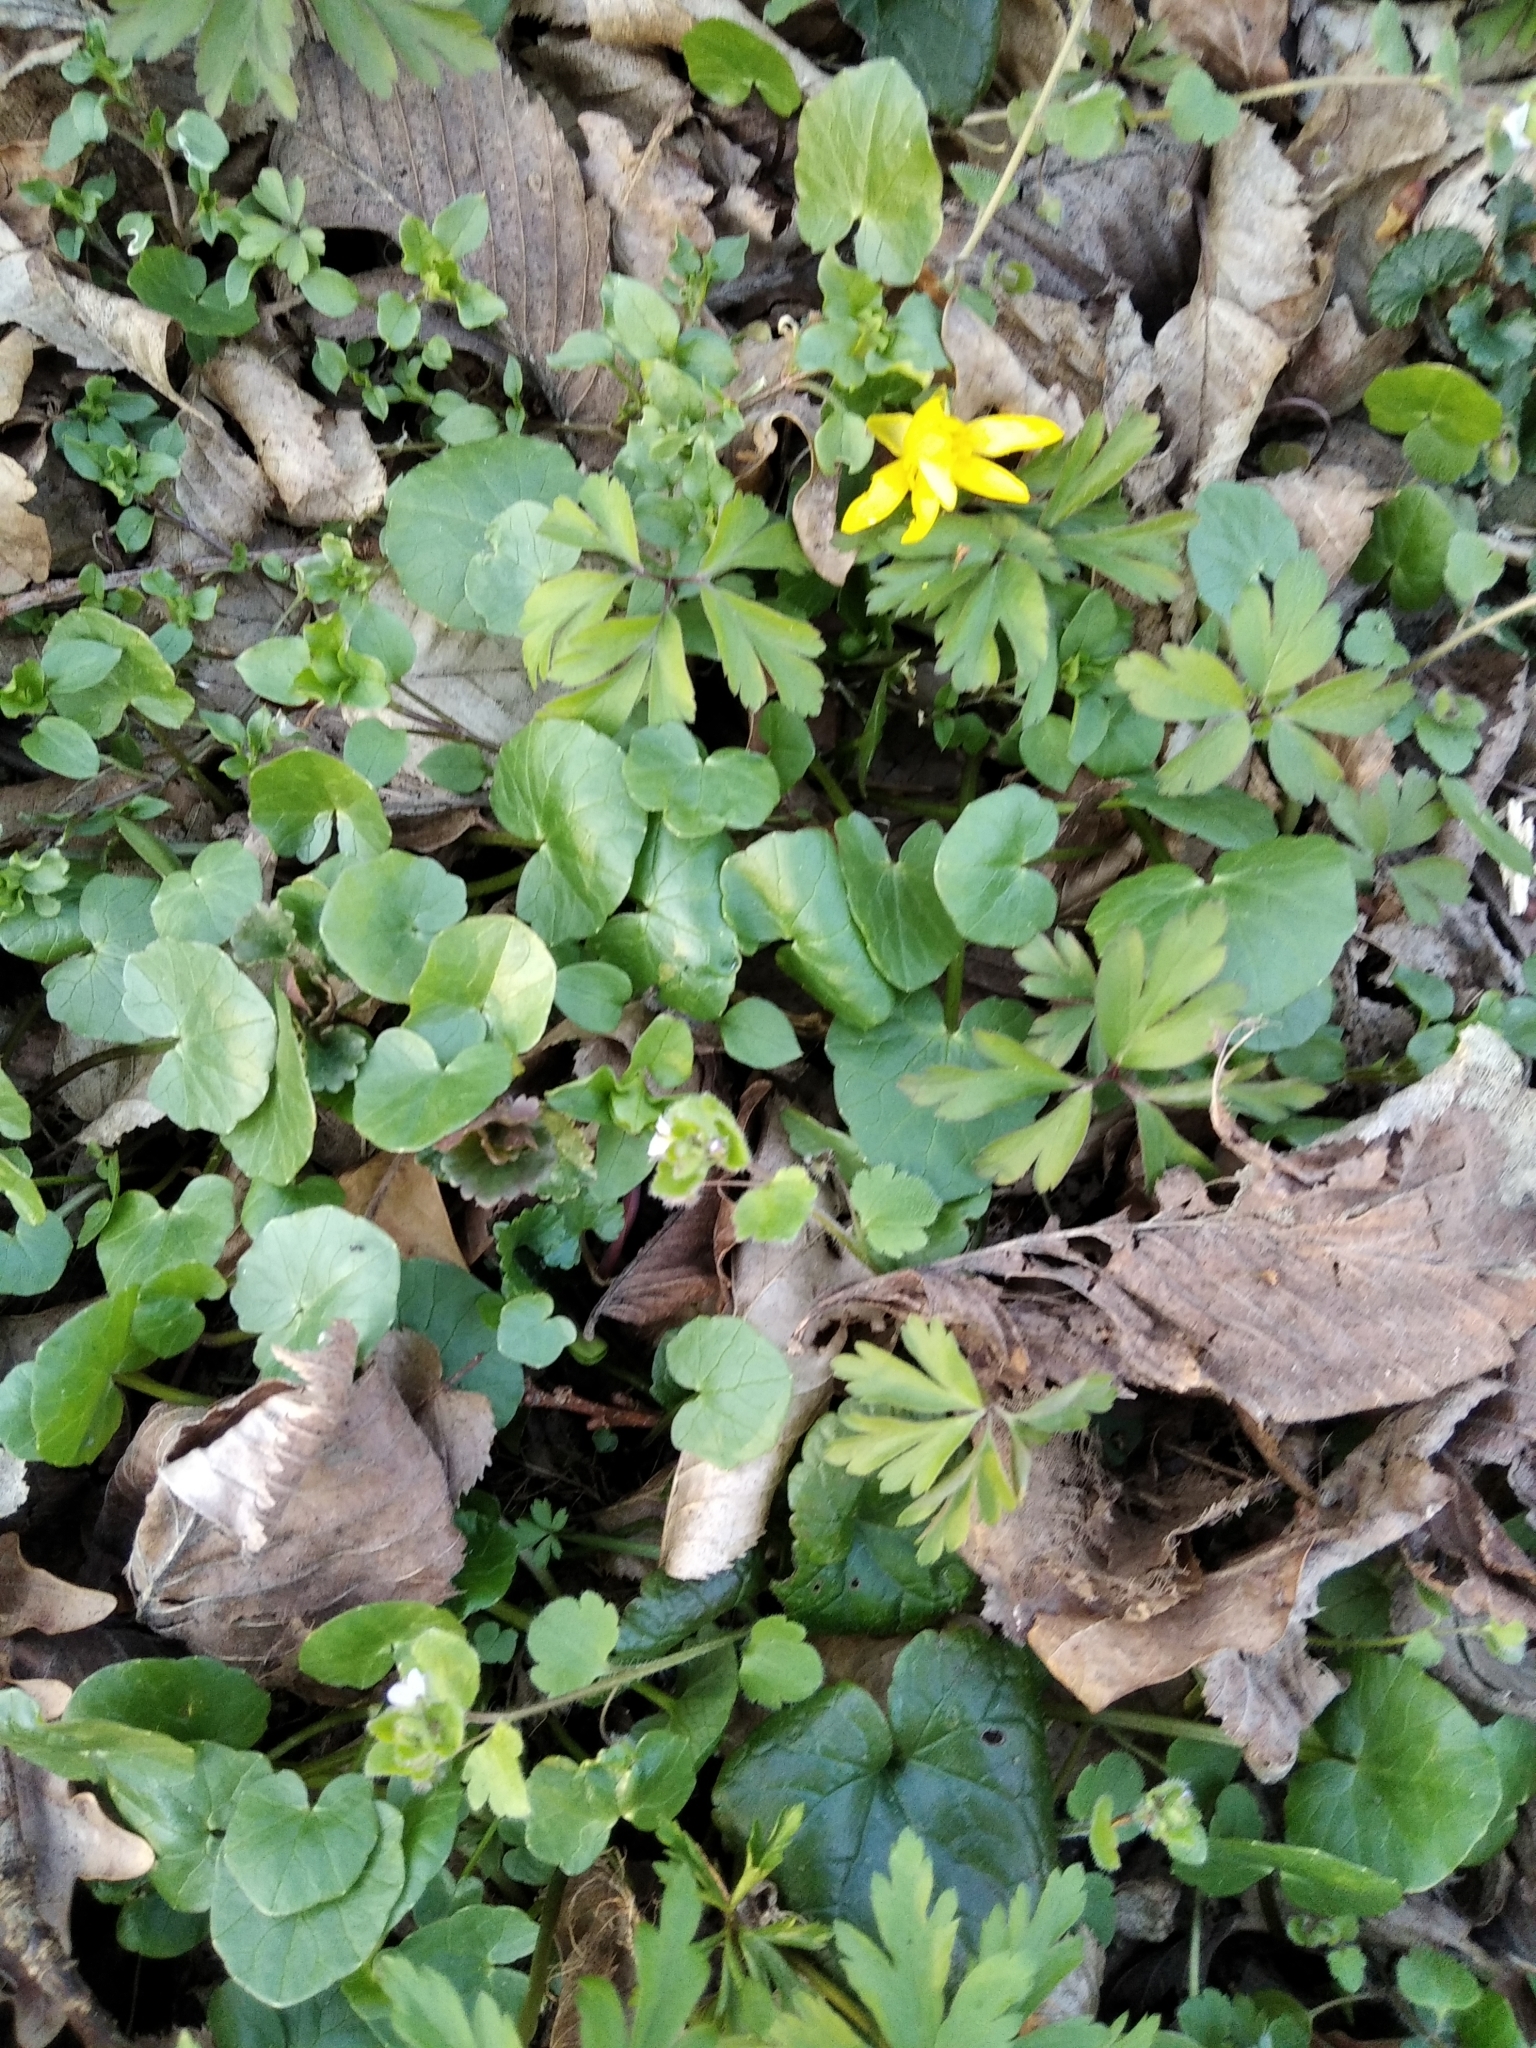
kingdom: Plantae
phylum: Tracheophyta
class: Magnoliopsida
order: Ranunculales
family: Ranunculaceae
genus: Ficaria
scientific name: Ficaria verna
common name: Lesser celandine
